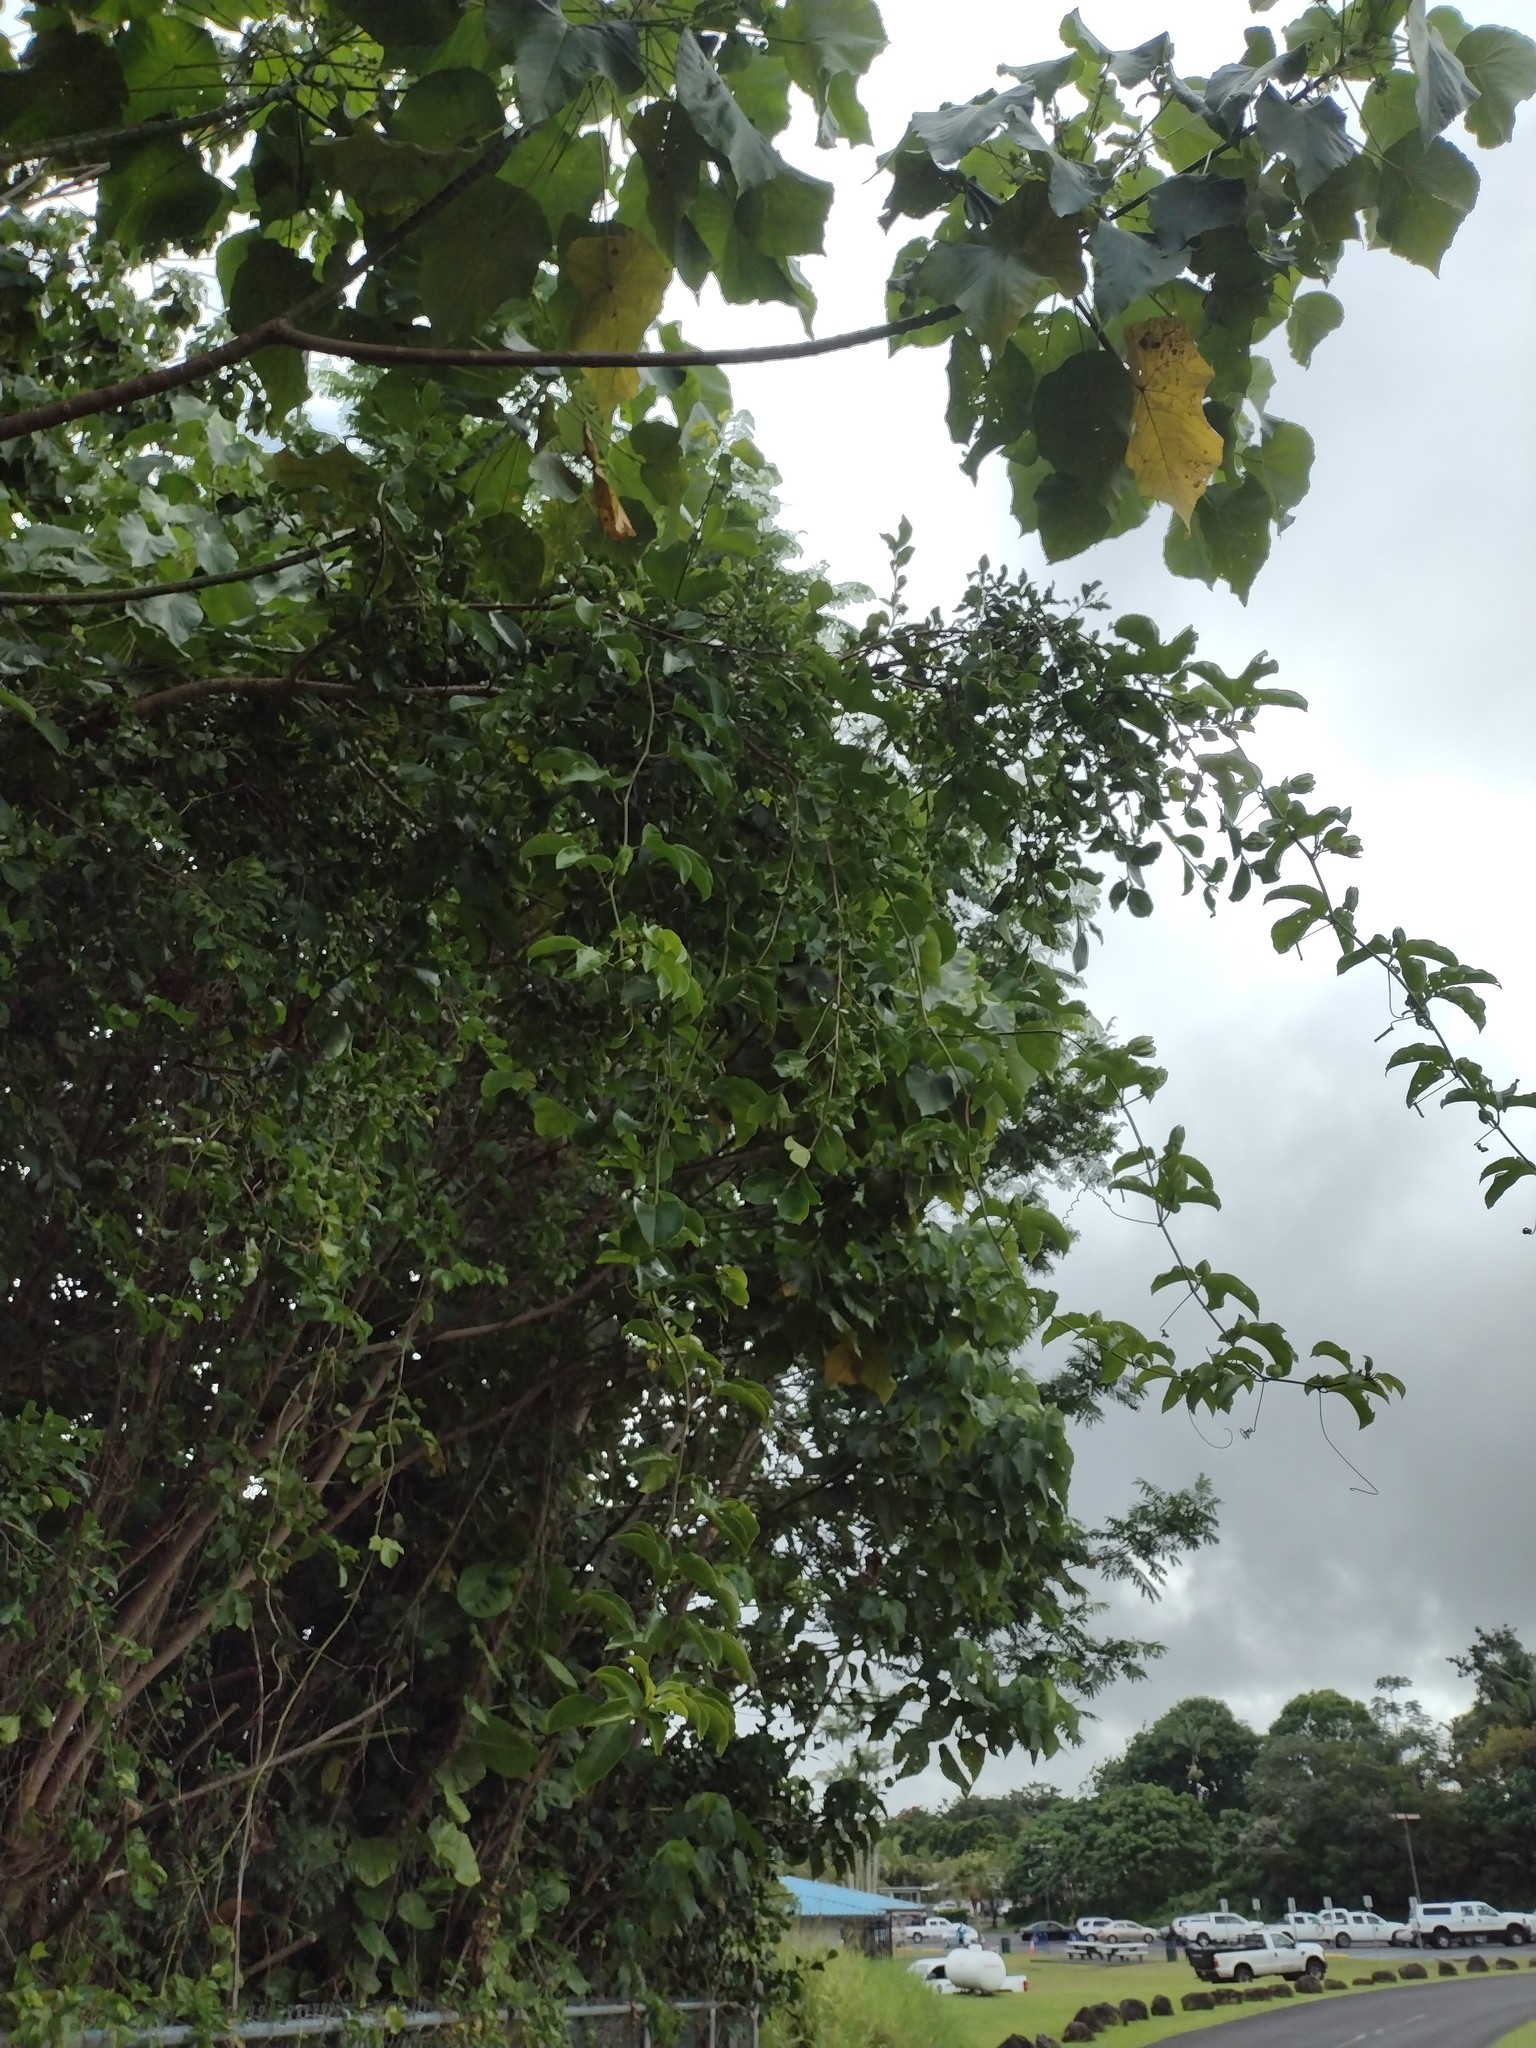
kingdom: Plantae
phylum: Tracheophyta
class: Magnoliopsida
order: Malpighiales
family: Passifloraceae
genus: Passiflora
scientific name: Passiflora edulis
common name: Purple granadilla
